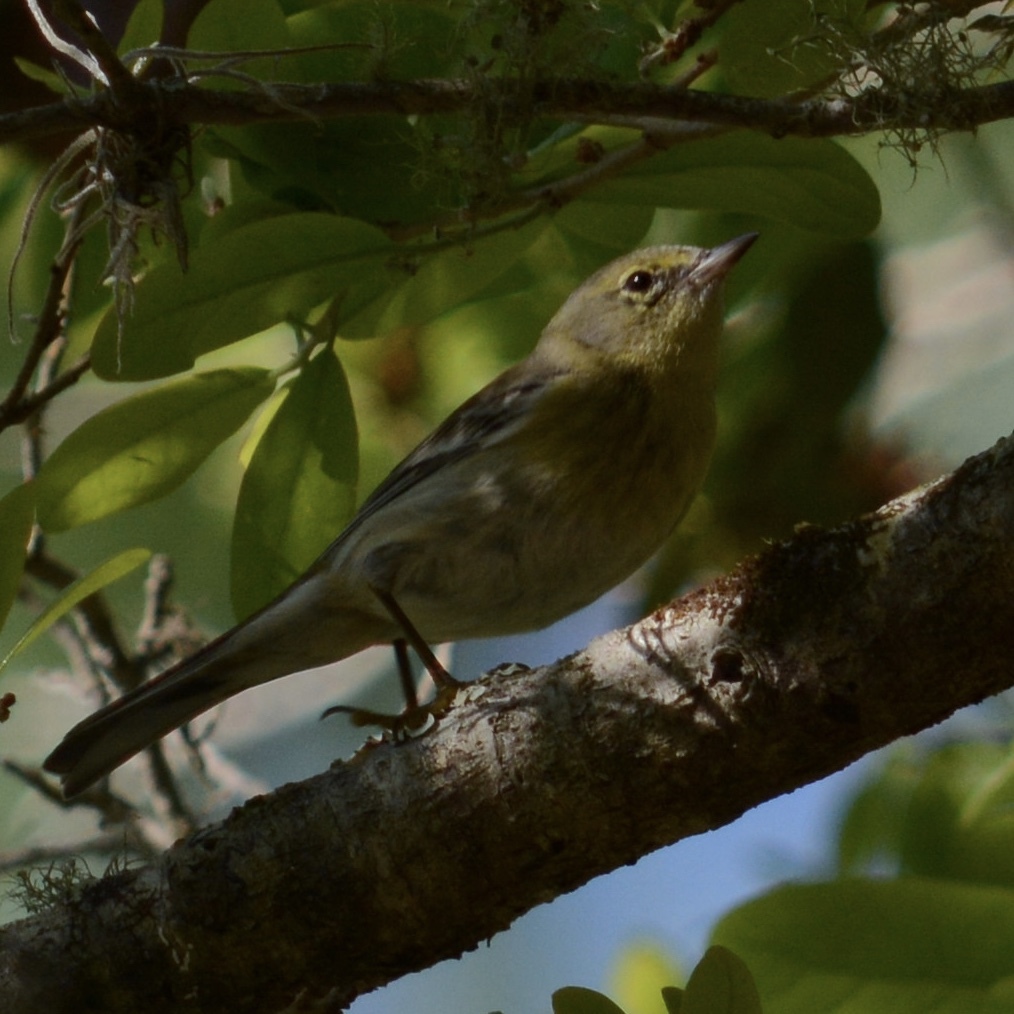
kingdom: Animalia
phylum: Chordata
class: Aves
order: Passeriformes
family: Parulidae
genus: Setophaga
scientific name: Setophaga pinus
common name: Pine warbler
